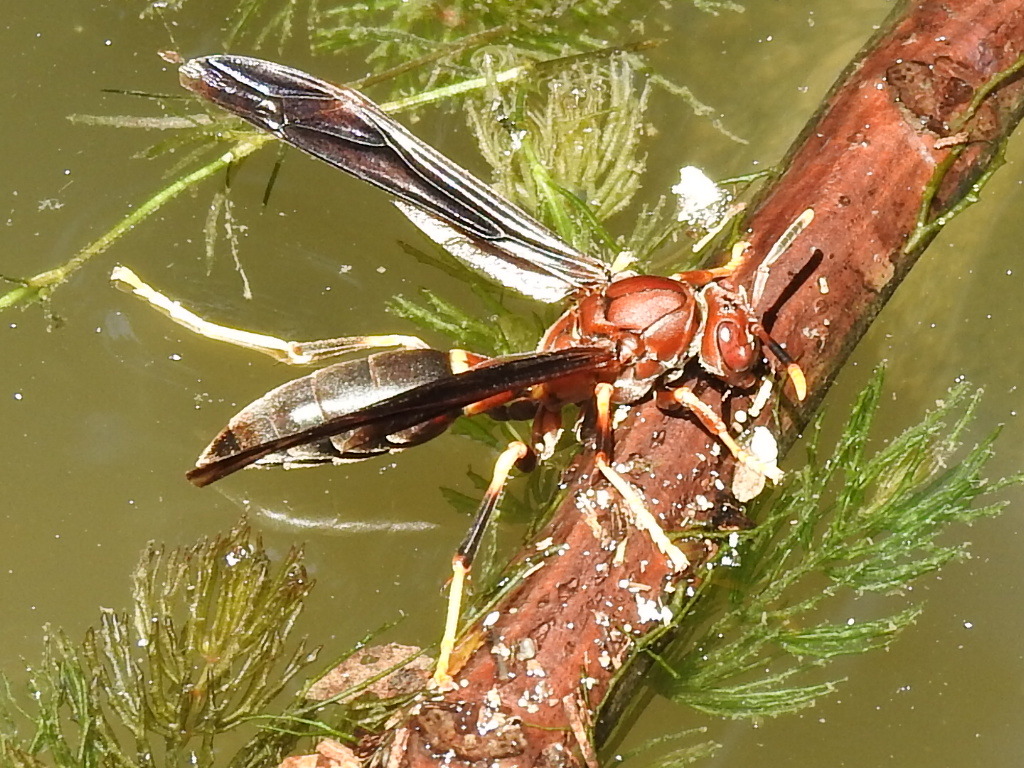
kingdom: Animalia
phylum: Arthropoda
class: Insecta
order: Hymenoptera
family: Eumenidae
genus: Polistes
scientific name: Polistes annularis
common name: Ringed paper wasp
